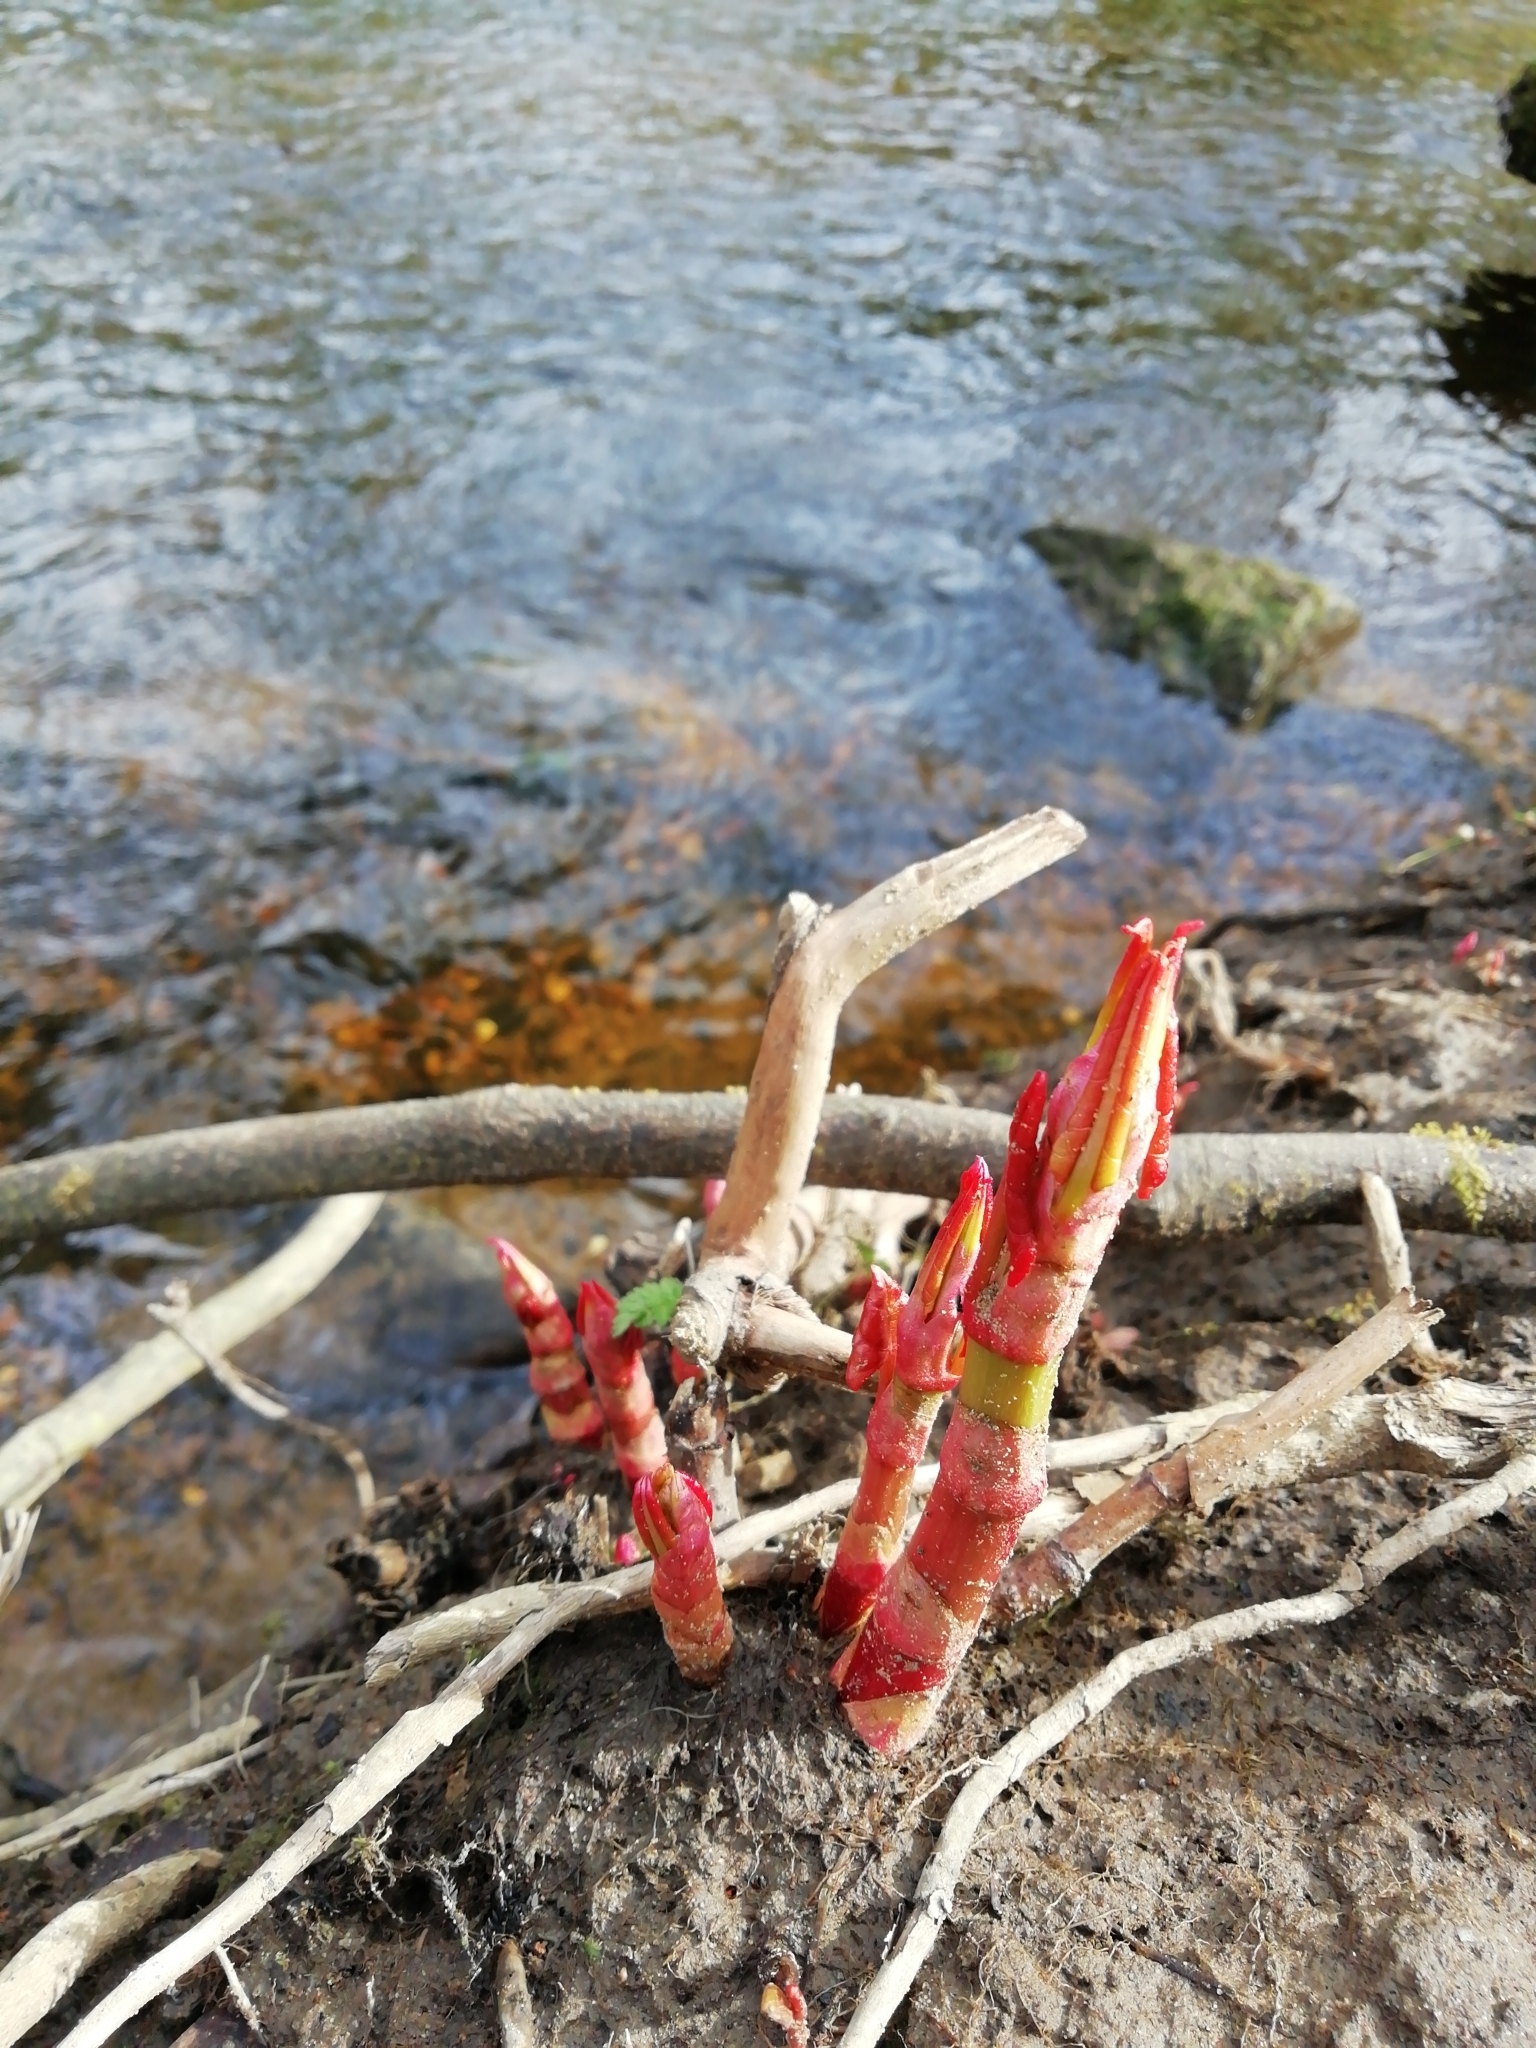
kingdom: Plantae
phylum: Tracheophyta
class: Magnoliopsida
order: Caryophyllales
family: Polygonaceae
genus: Reynoutria
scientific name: Reynoutria japonica
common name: Japanese knotweed
